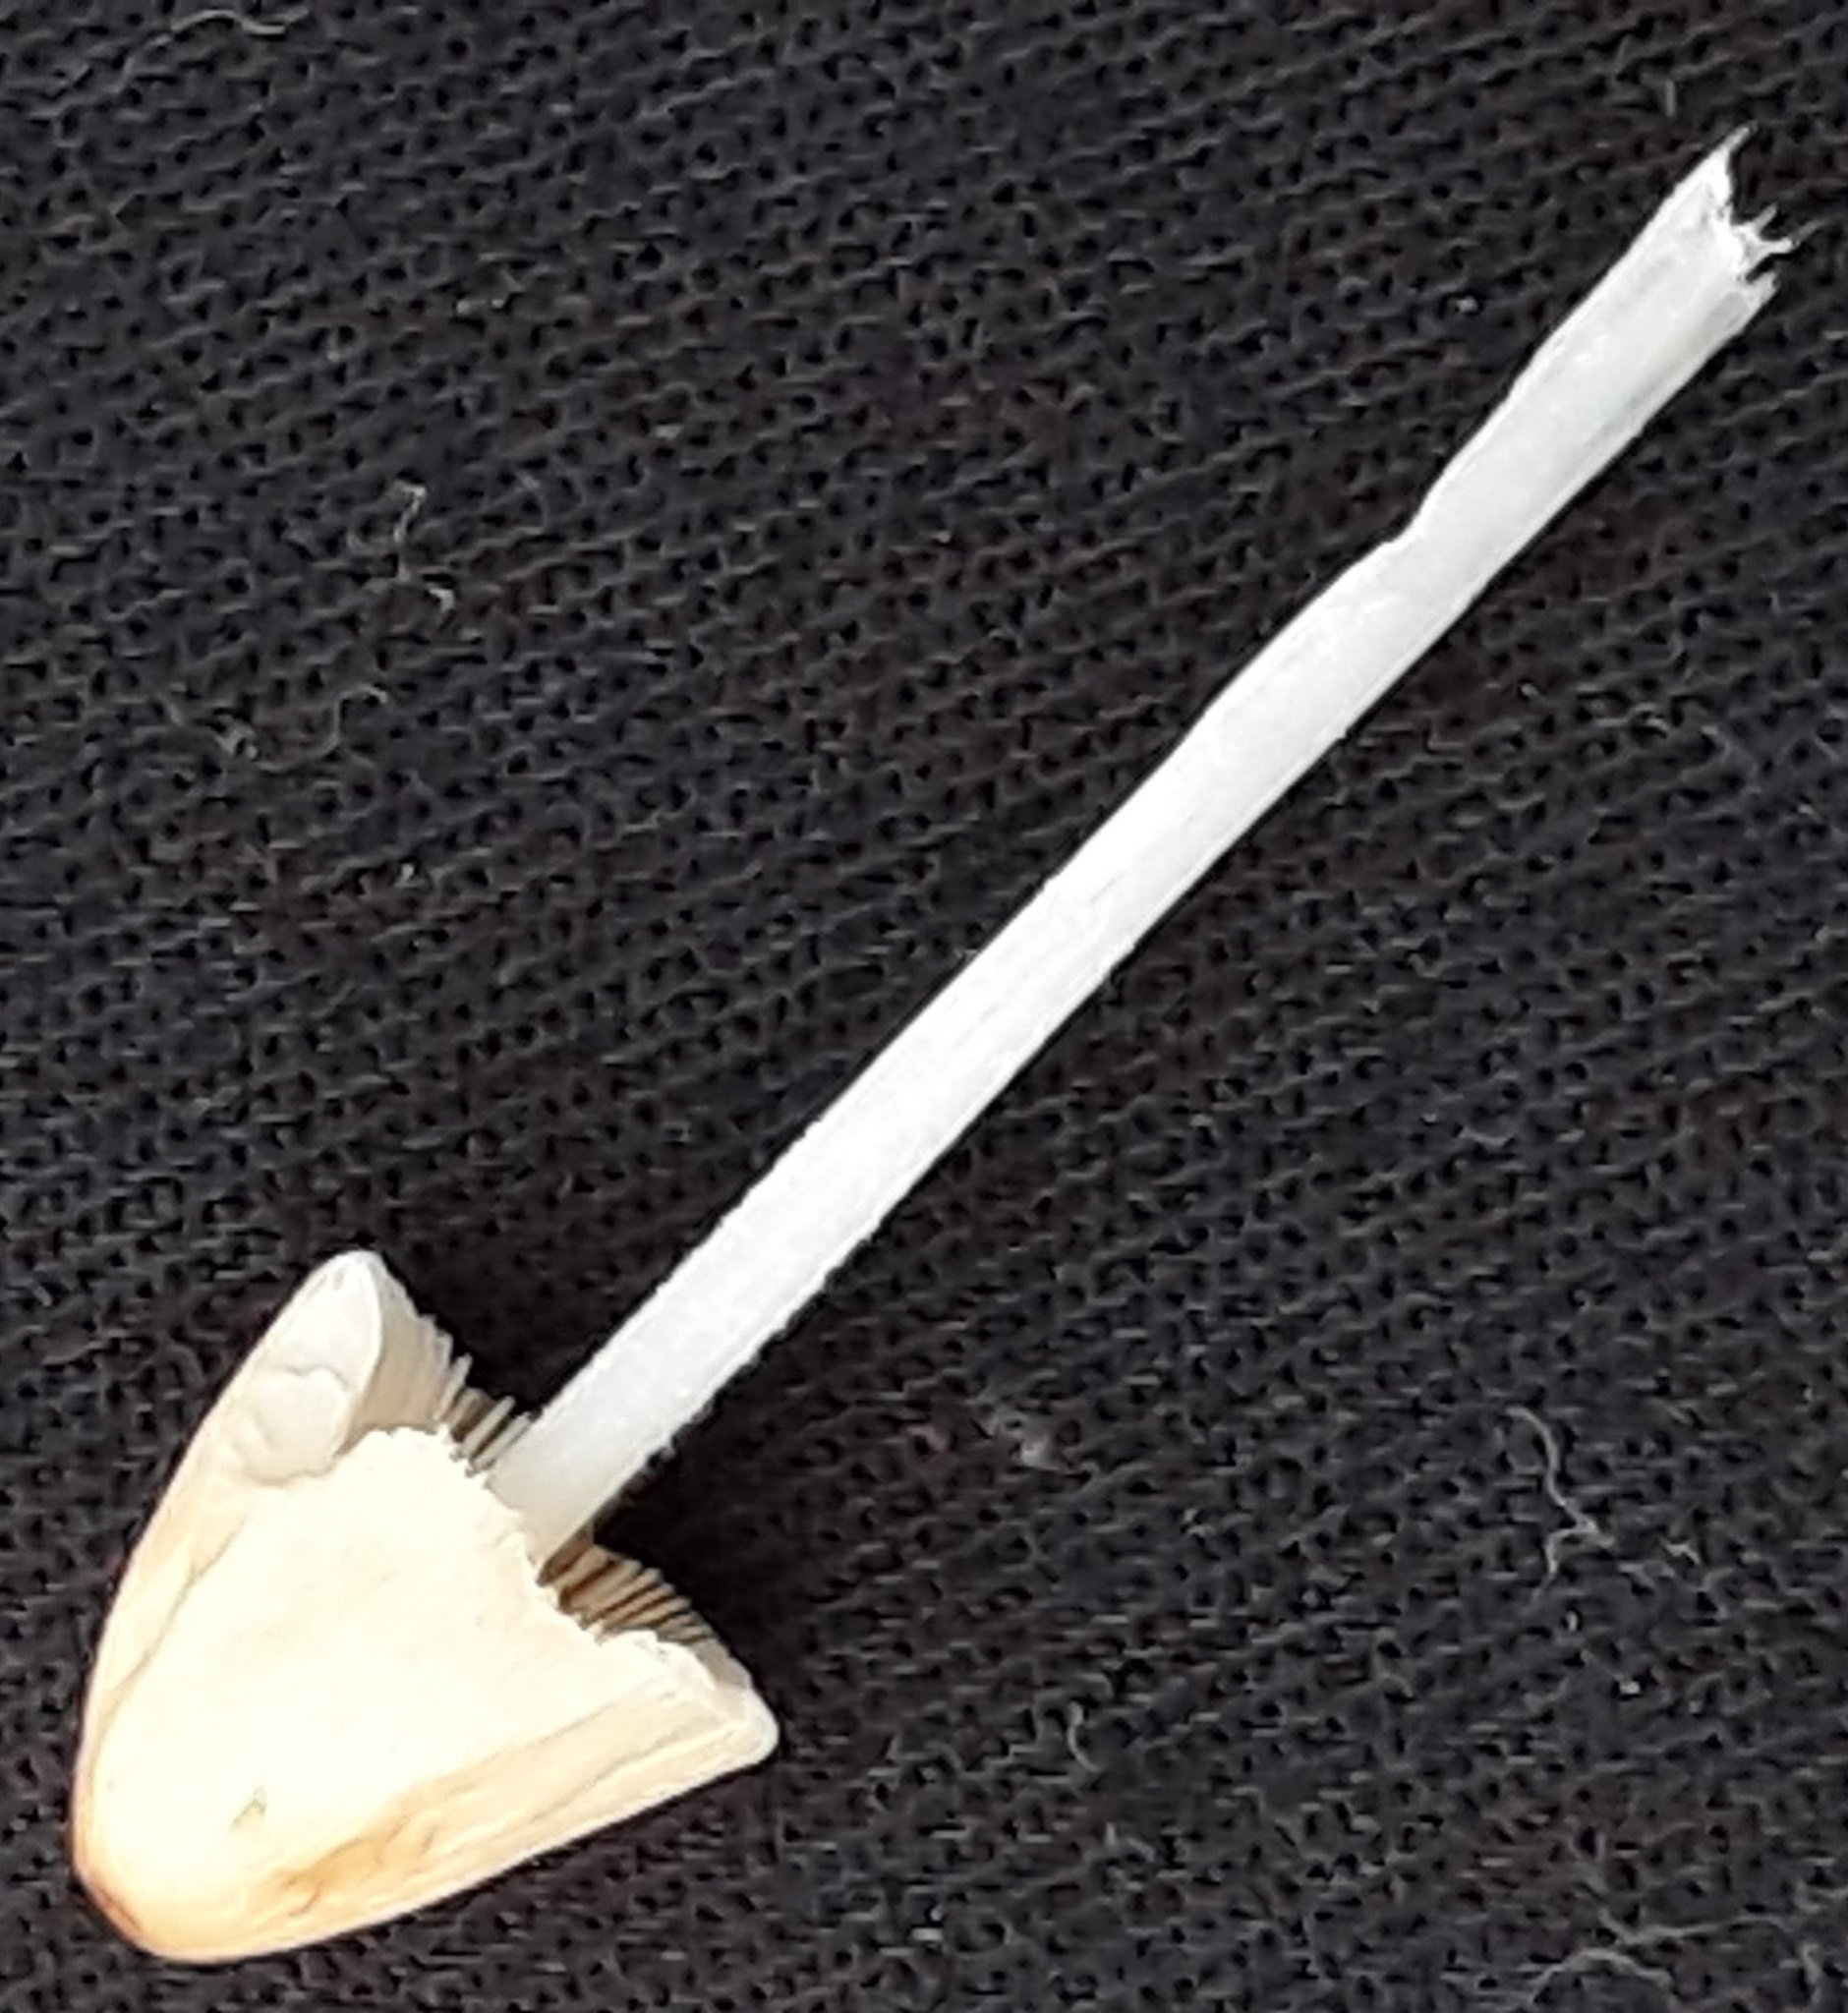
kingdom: Fungi
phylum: Basidiomycota
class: Agaricomycetes
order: Agaricales
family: Bolbitiaceae
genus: Conocybe
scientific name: Conocybe apala
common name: Milky conecap
